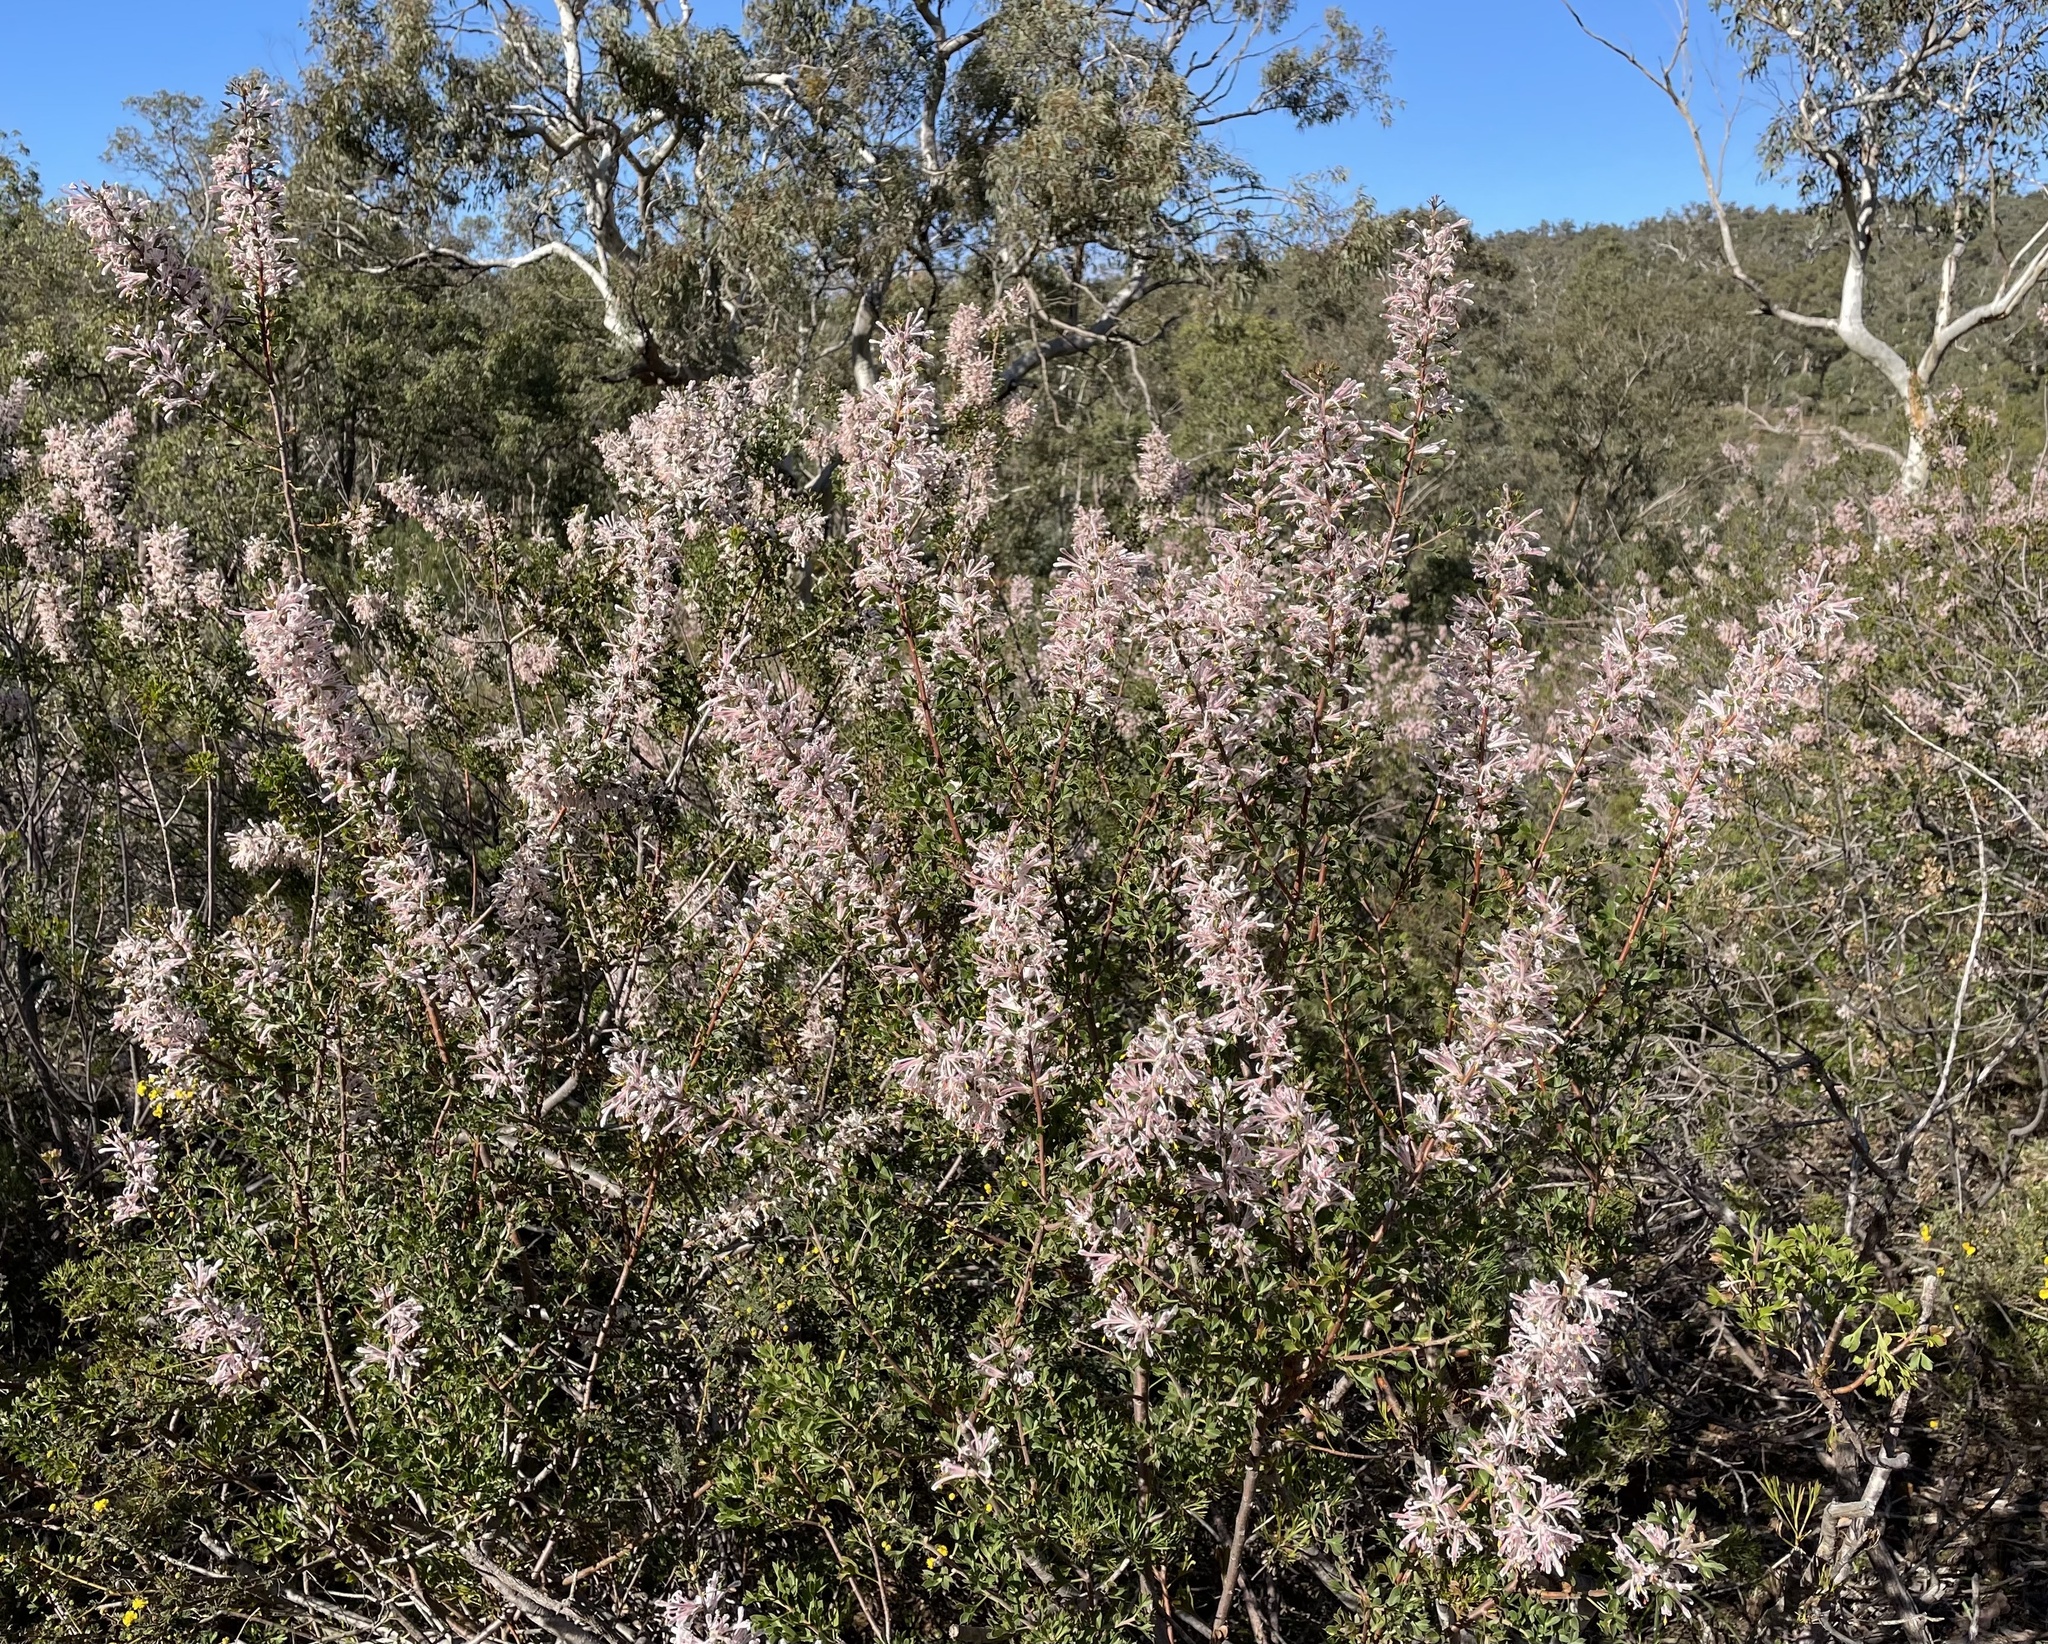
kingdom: Plantae
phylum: Tracheophyta
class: Magnoliopsida
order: Proteales
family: Proteaceae
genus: Petrophile
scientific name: Petrophile biloba
